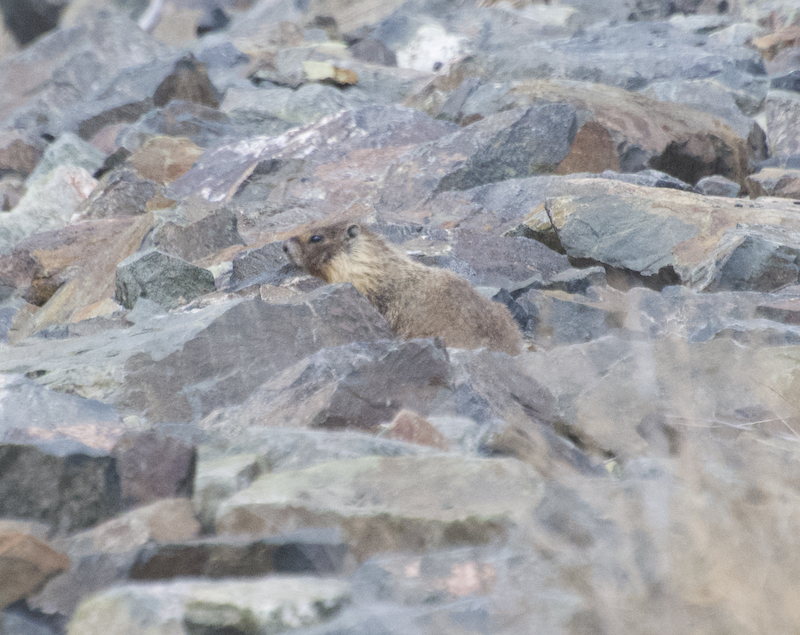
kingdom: Animalia
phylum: Chordata
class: Mammalia
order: Rodentia
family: Sciuridae
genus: Marmota
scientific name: Marmota flaviventris
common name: Yellow-bellied marmot
